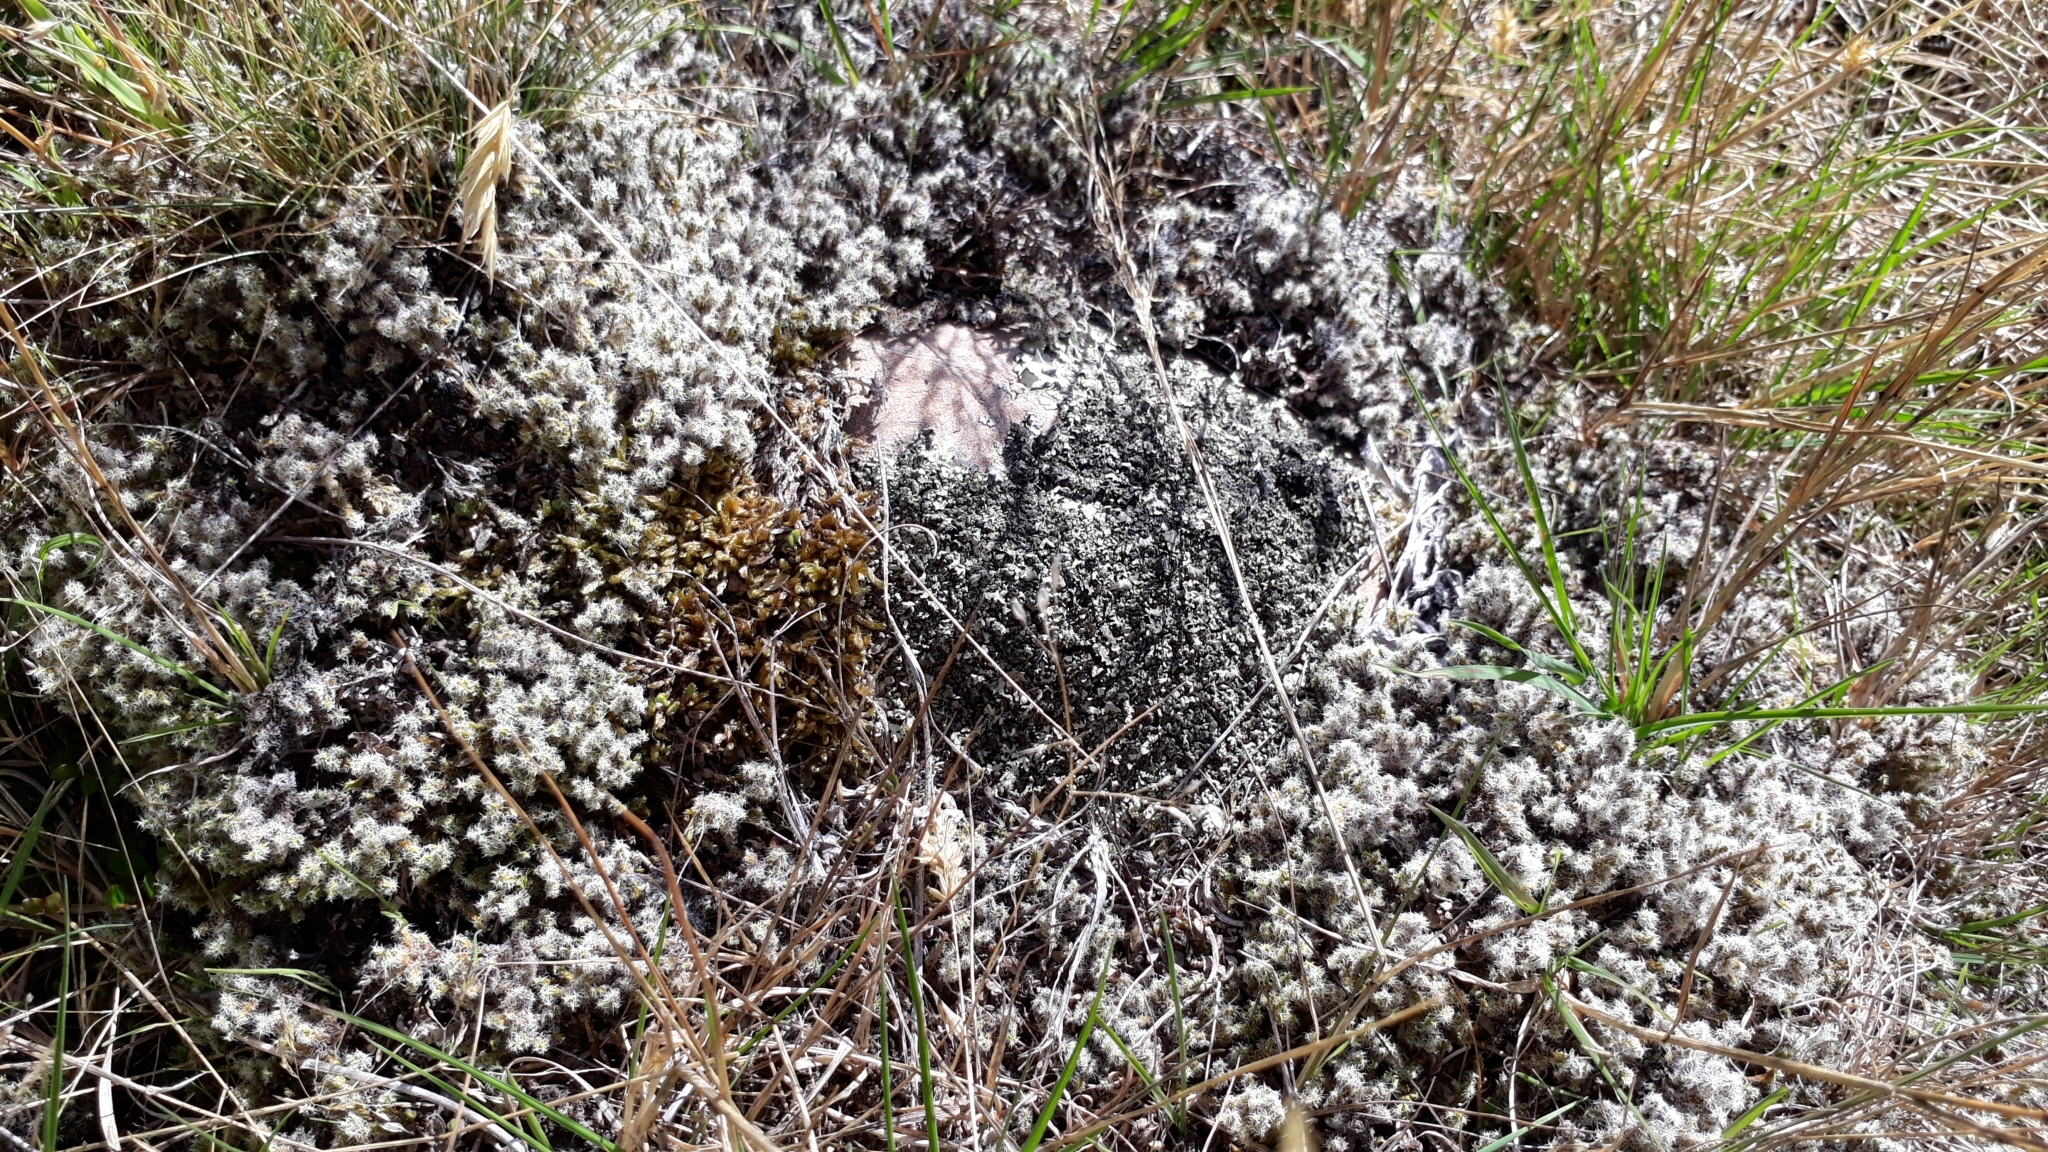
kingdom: Plantae
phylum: Bryophyta
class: Bryopsida
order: Grimmiales
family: Grimmiaceae
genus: Racomitrium
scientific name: Racomitrium lanuginosum
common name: Hoary rock moss
